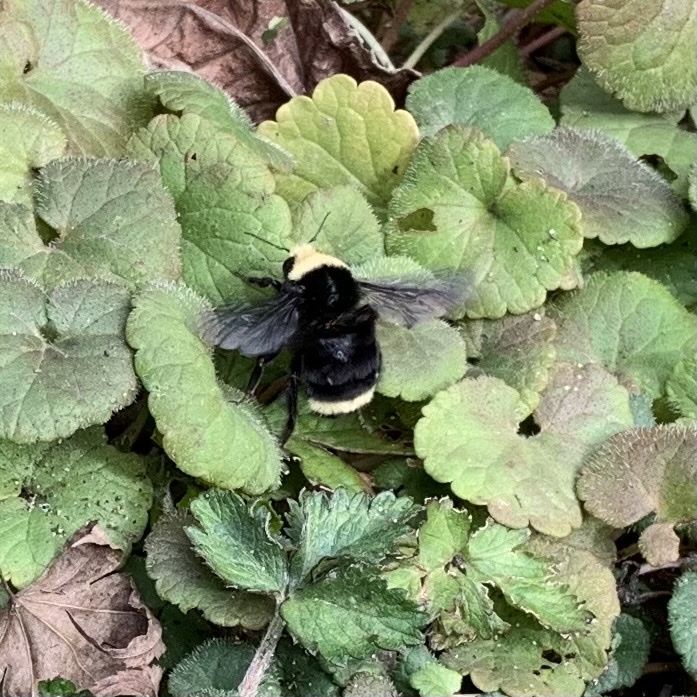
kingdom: Animalia
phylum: Arthropoda
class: Insecta
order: Hymenoptera
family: Apidae
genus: Pyrobombus
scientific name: Pyrobombus
